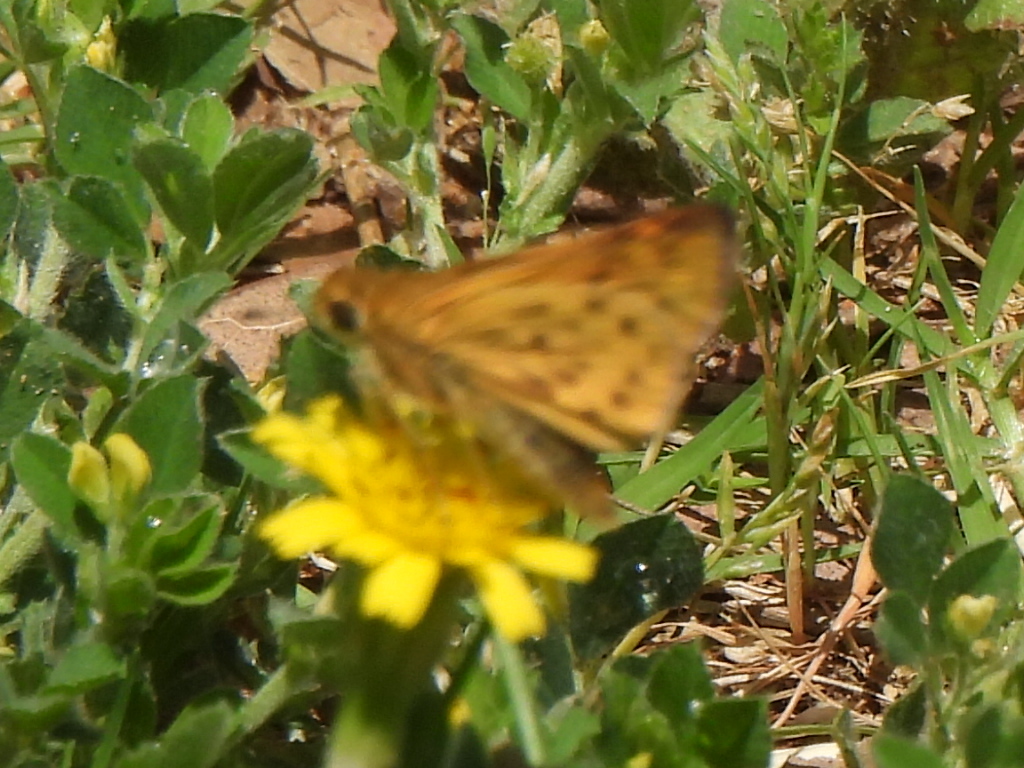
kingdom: Animalia
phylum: Arthropoda
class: Insecta
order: Lepidoptera
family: Hesperiidae
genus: Hylephila
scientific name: Hylephila phyleus
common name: Fiery skipper
